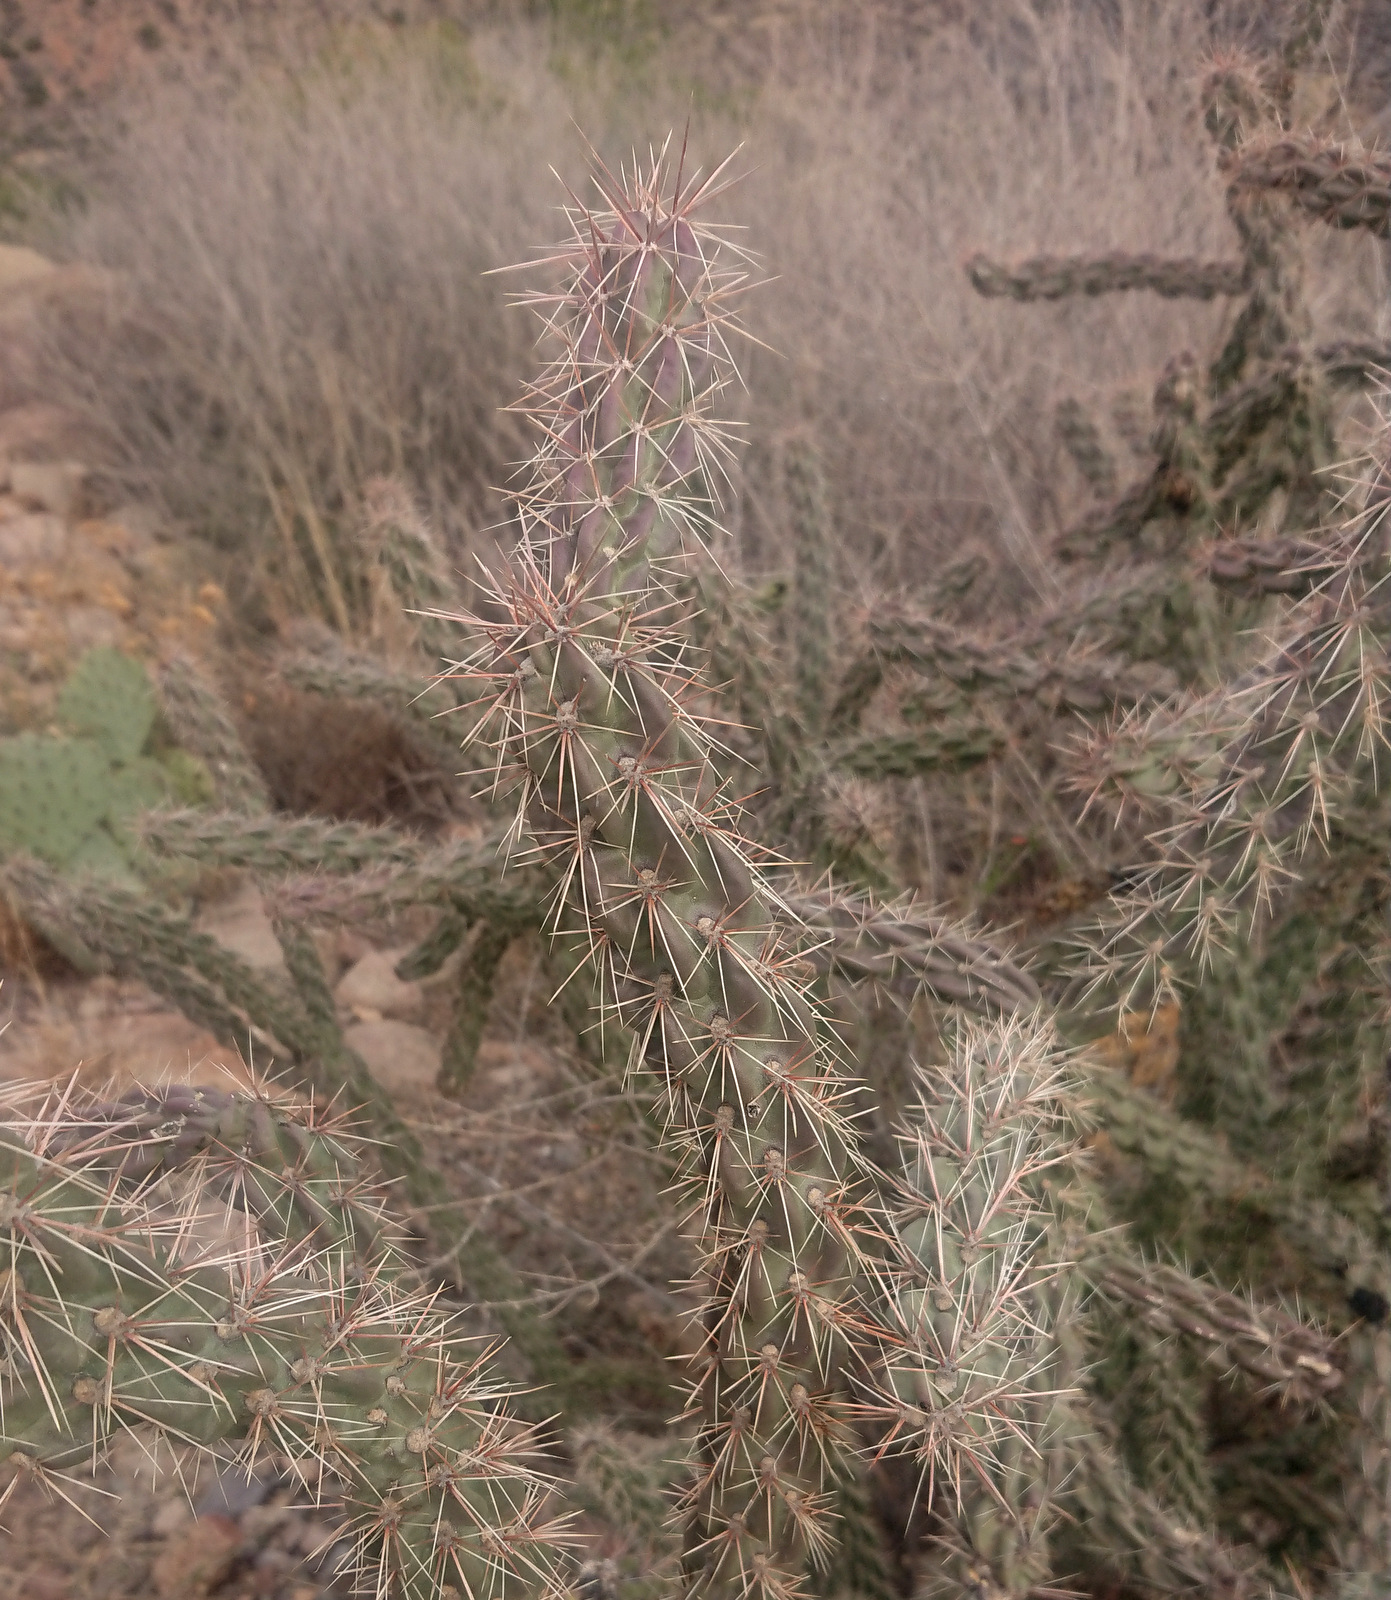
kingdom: Plantae
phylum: Tracheophyta
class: Magnoliopsida
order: Caryophyllales
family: Cactaceae
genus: Cylindropuntia
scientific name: Cylindropuntia imbricata
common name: Candelabrum cactus
